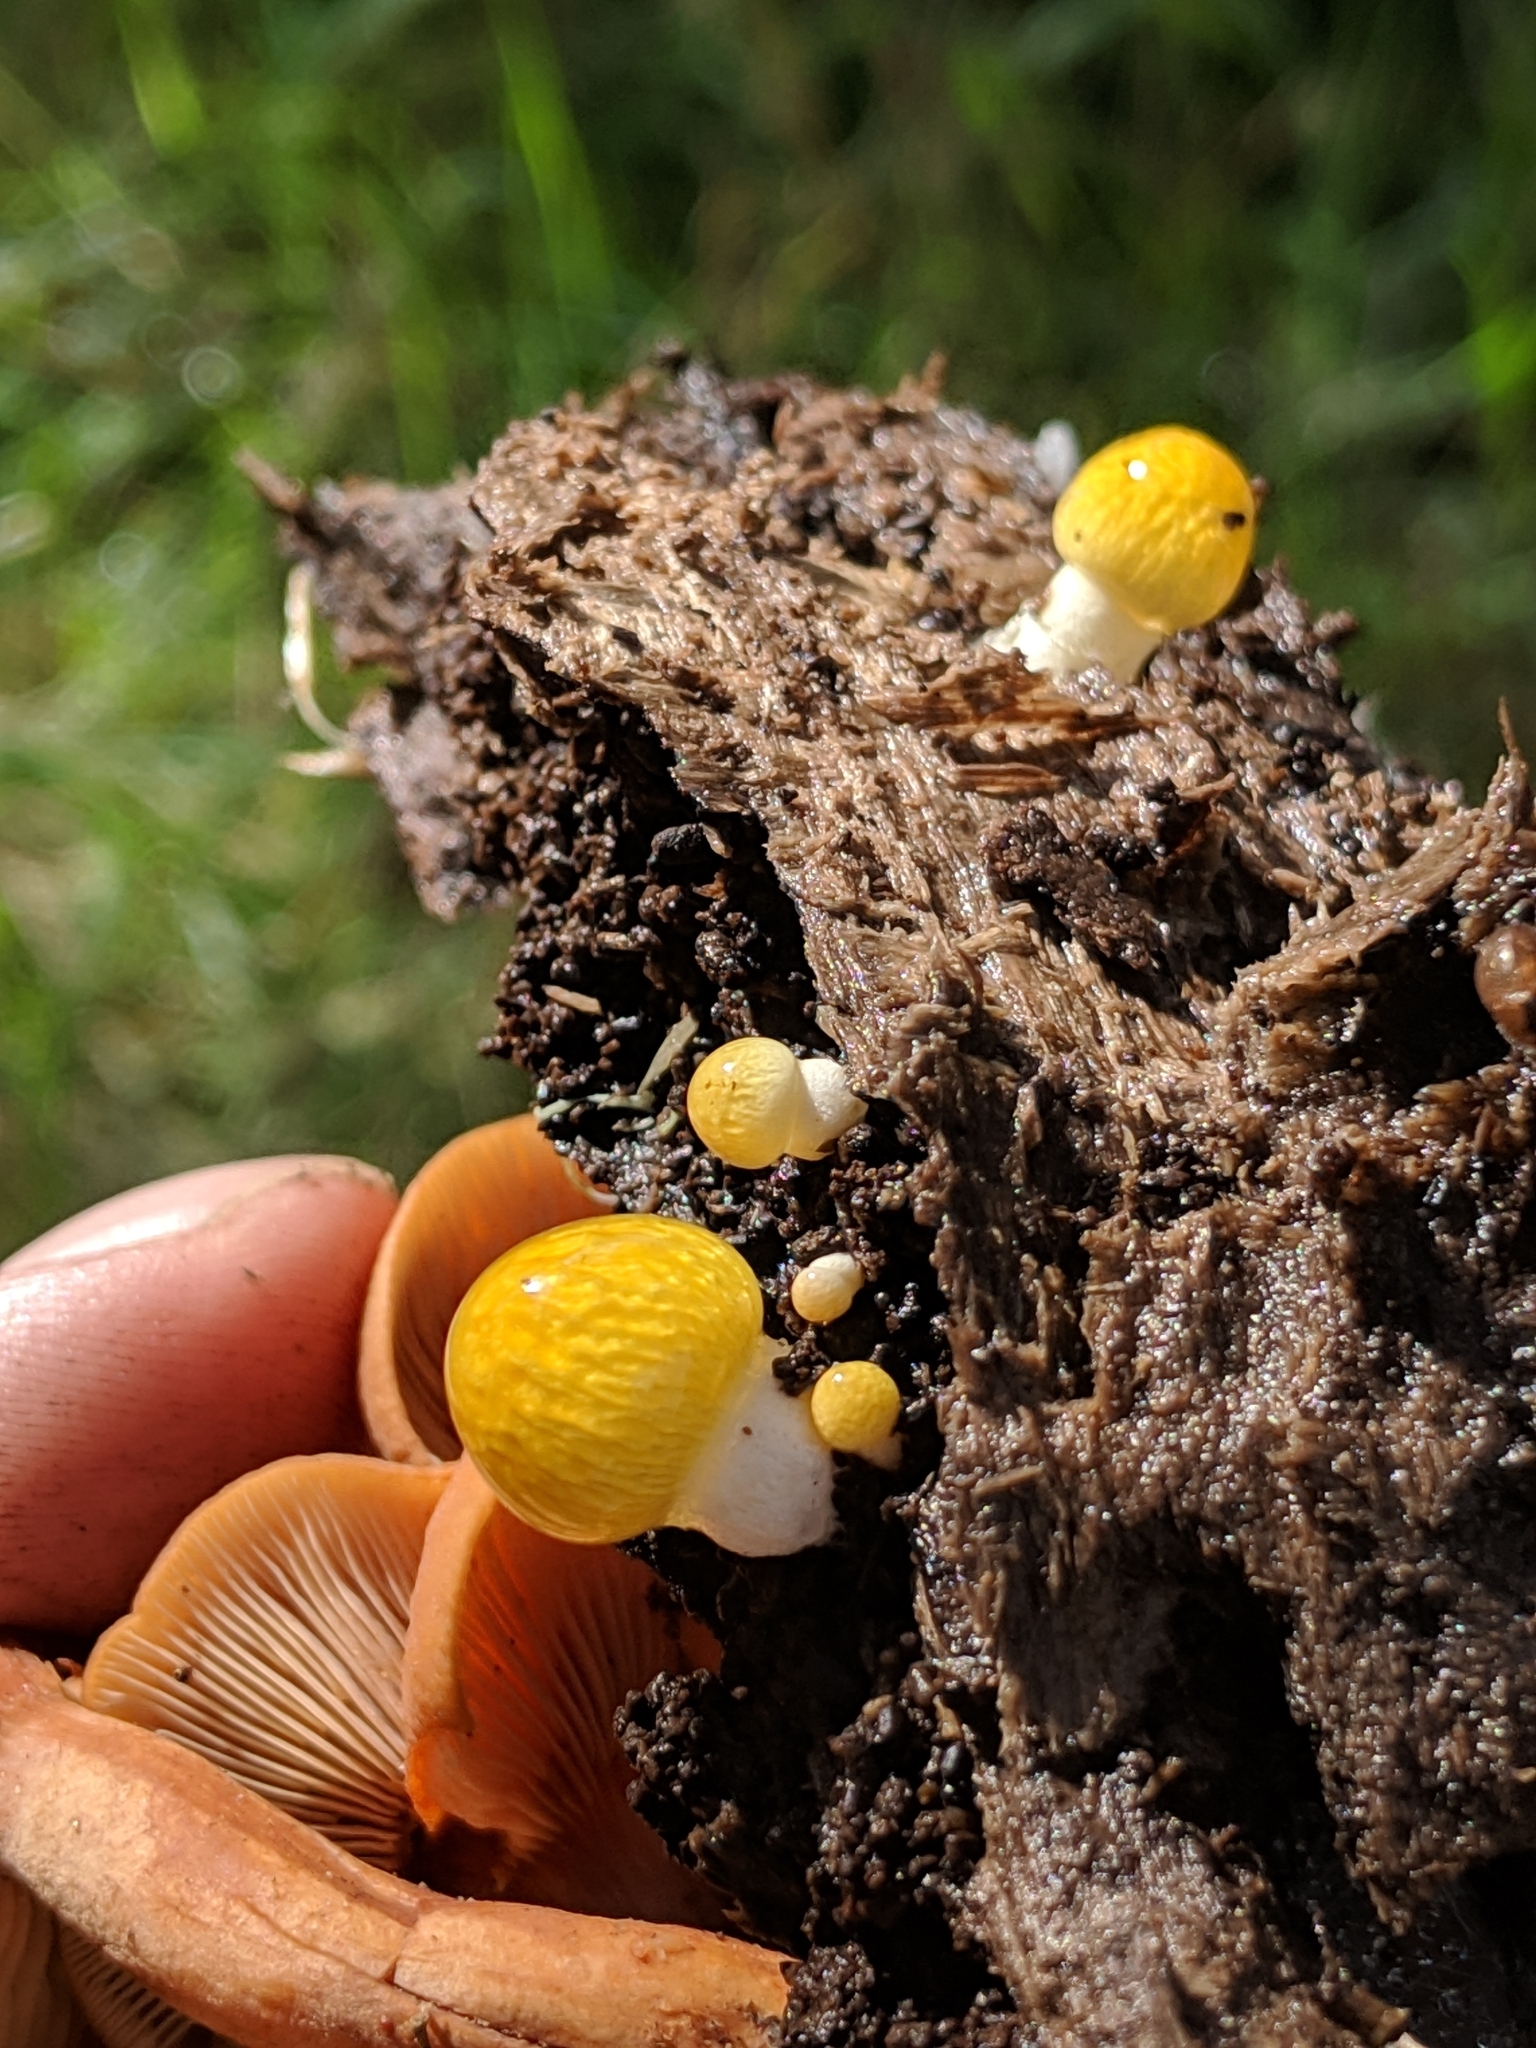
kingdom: Fungi
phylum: Basidiomycota
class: Agaricomycetes
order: Agaricales
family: Bolbitiaceae
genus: Bolbitius
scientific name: Bolbitius titubans
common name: Yellow fieldcap
